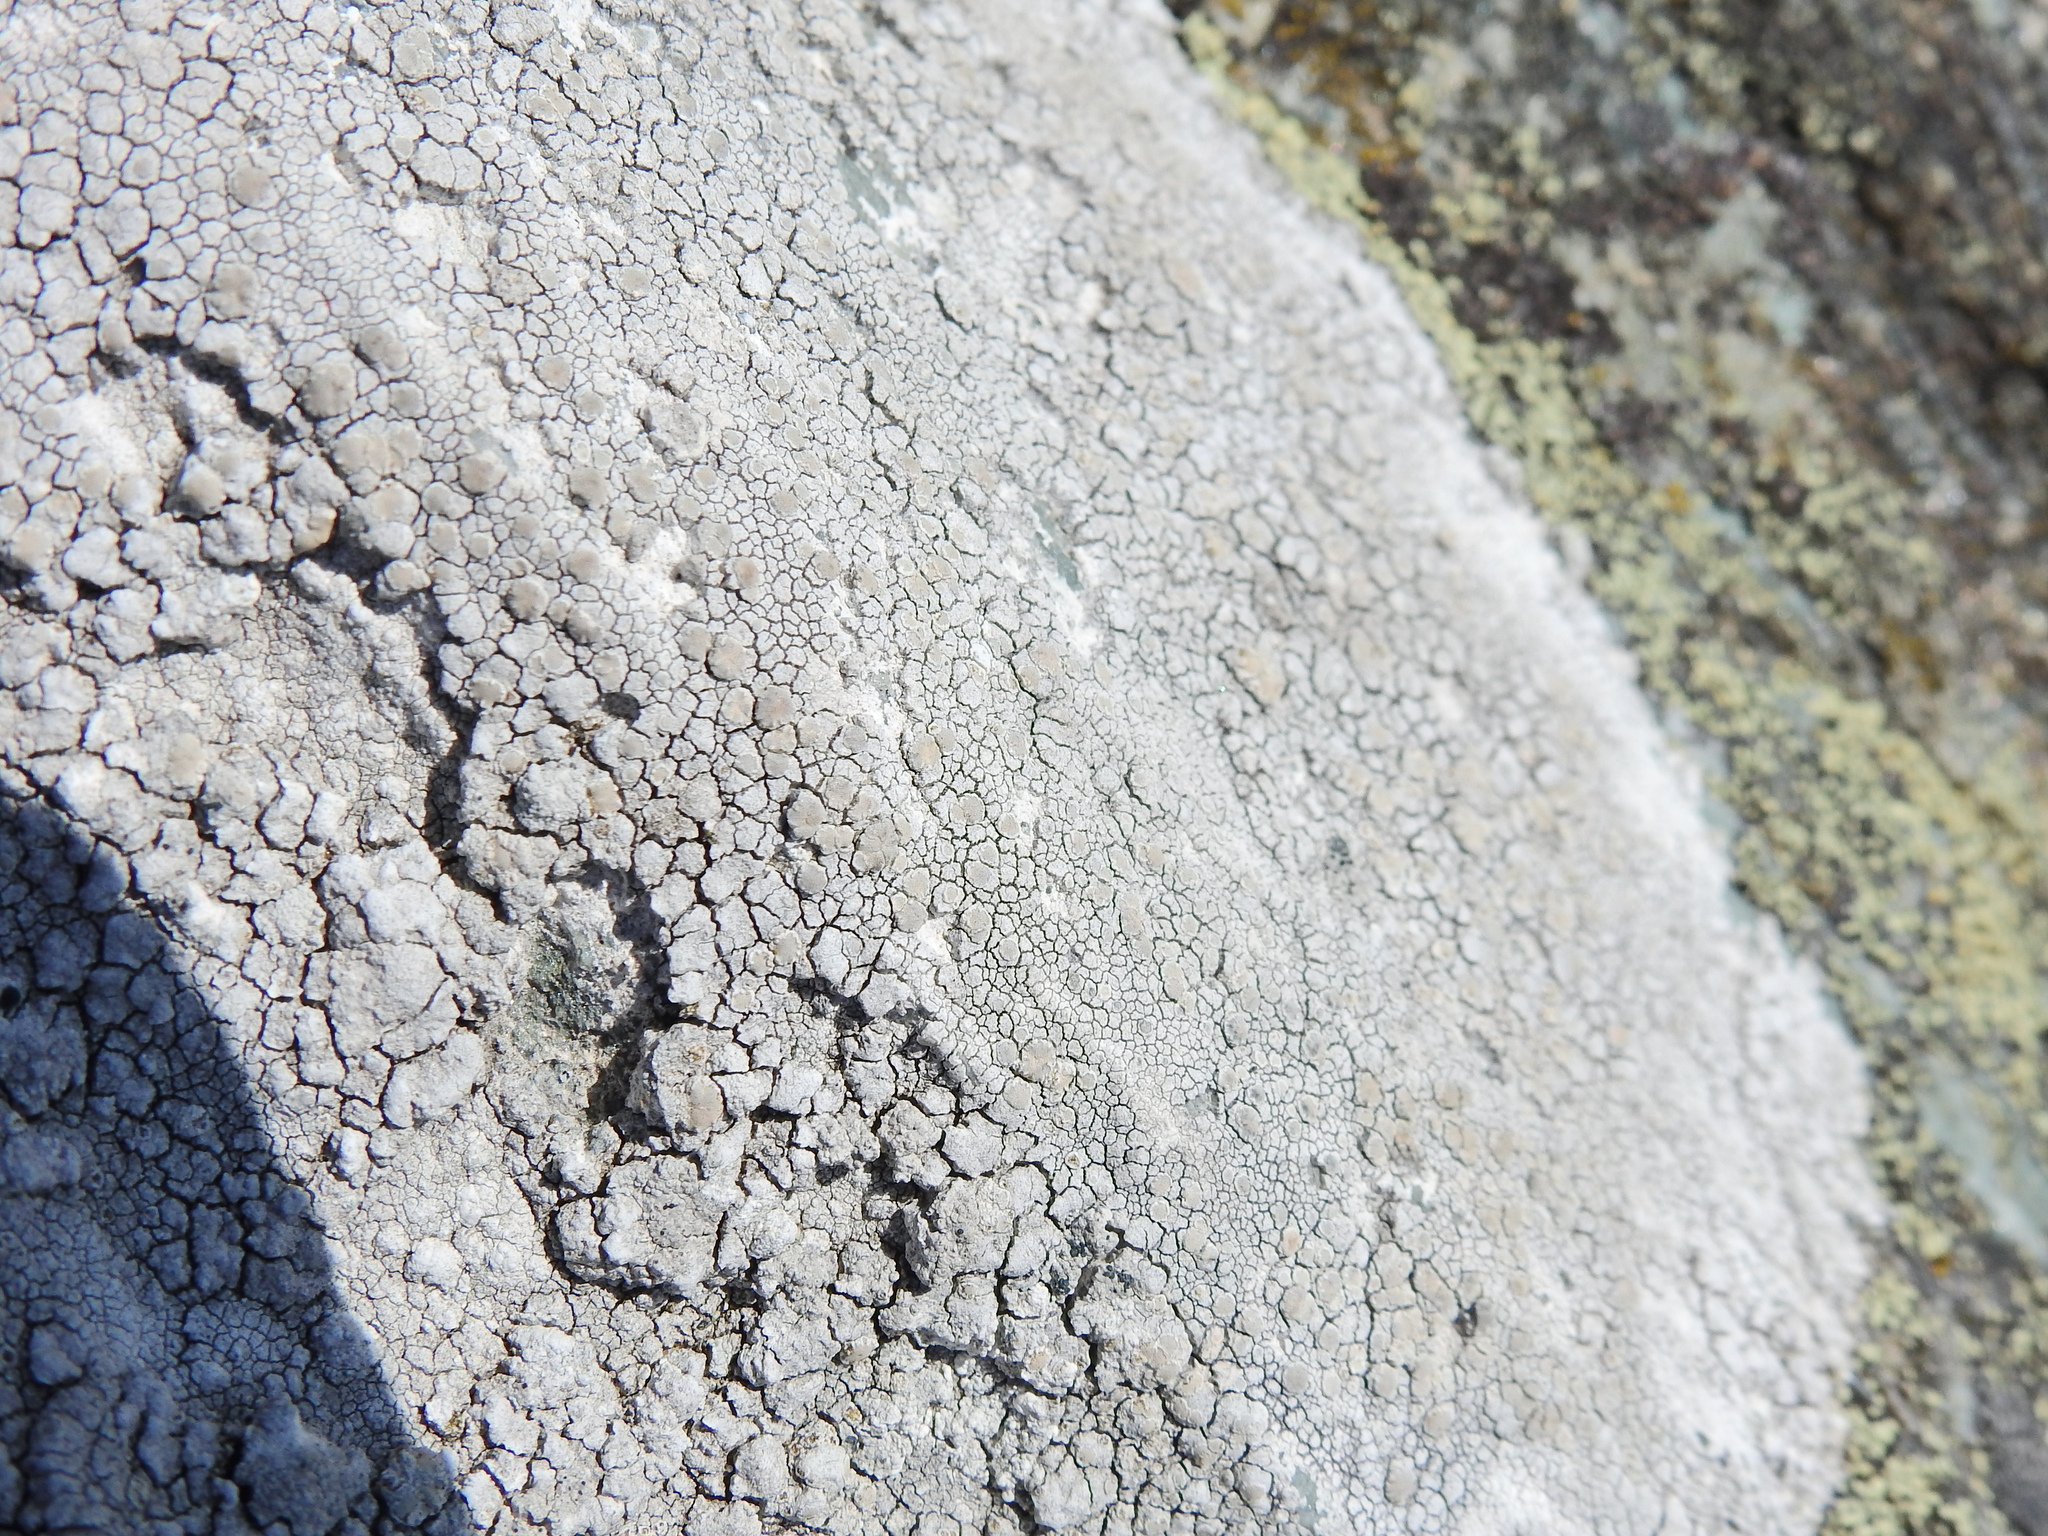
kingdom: Fungi
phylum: Ascomycota
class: Lecanoromycetes
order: Lecanorales
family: Lecanoraceae
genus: Glaucomaria
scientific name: Glaucomaria rupicola
